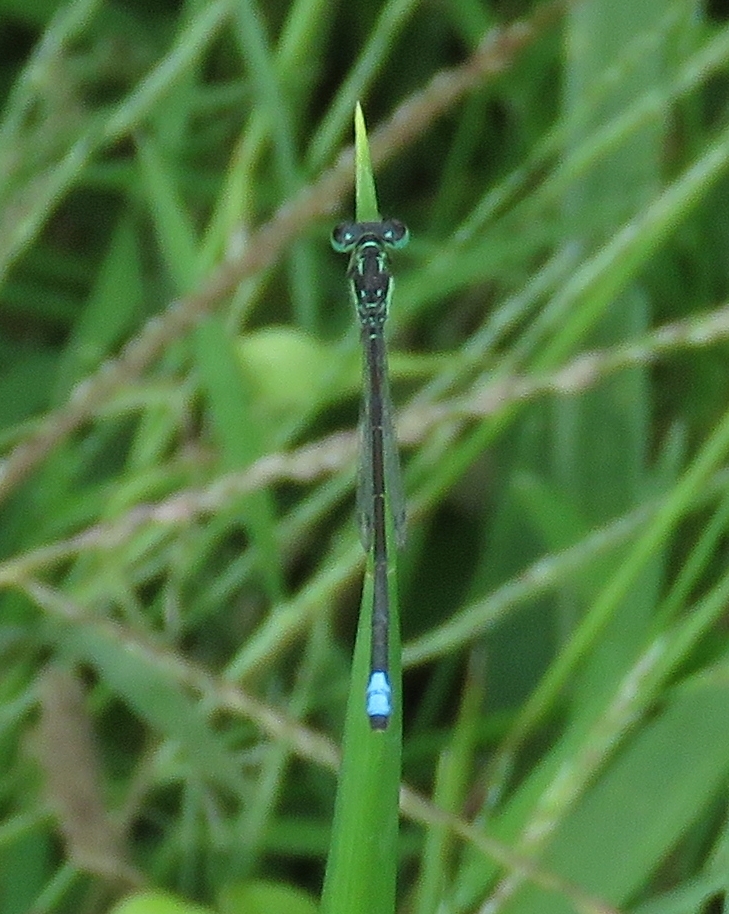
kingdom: Animalia
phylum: Arthropoda
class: Insecta
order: Odonata
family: Coenagrionidae
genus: Ischnura
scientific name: Ischnura verticalis
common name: Eastern forktail
